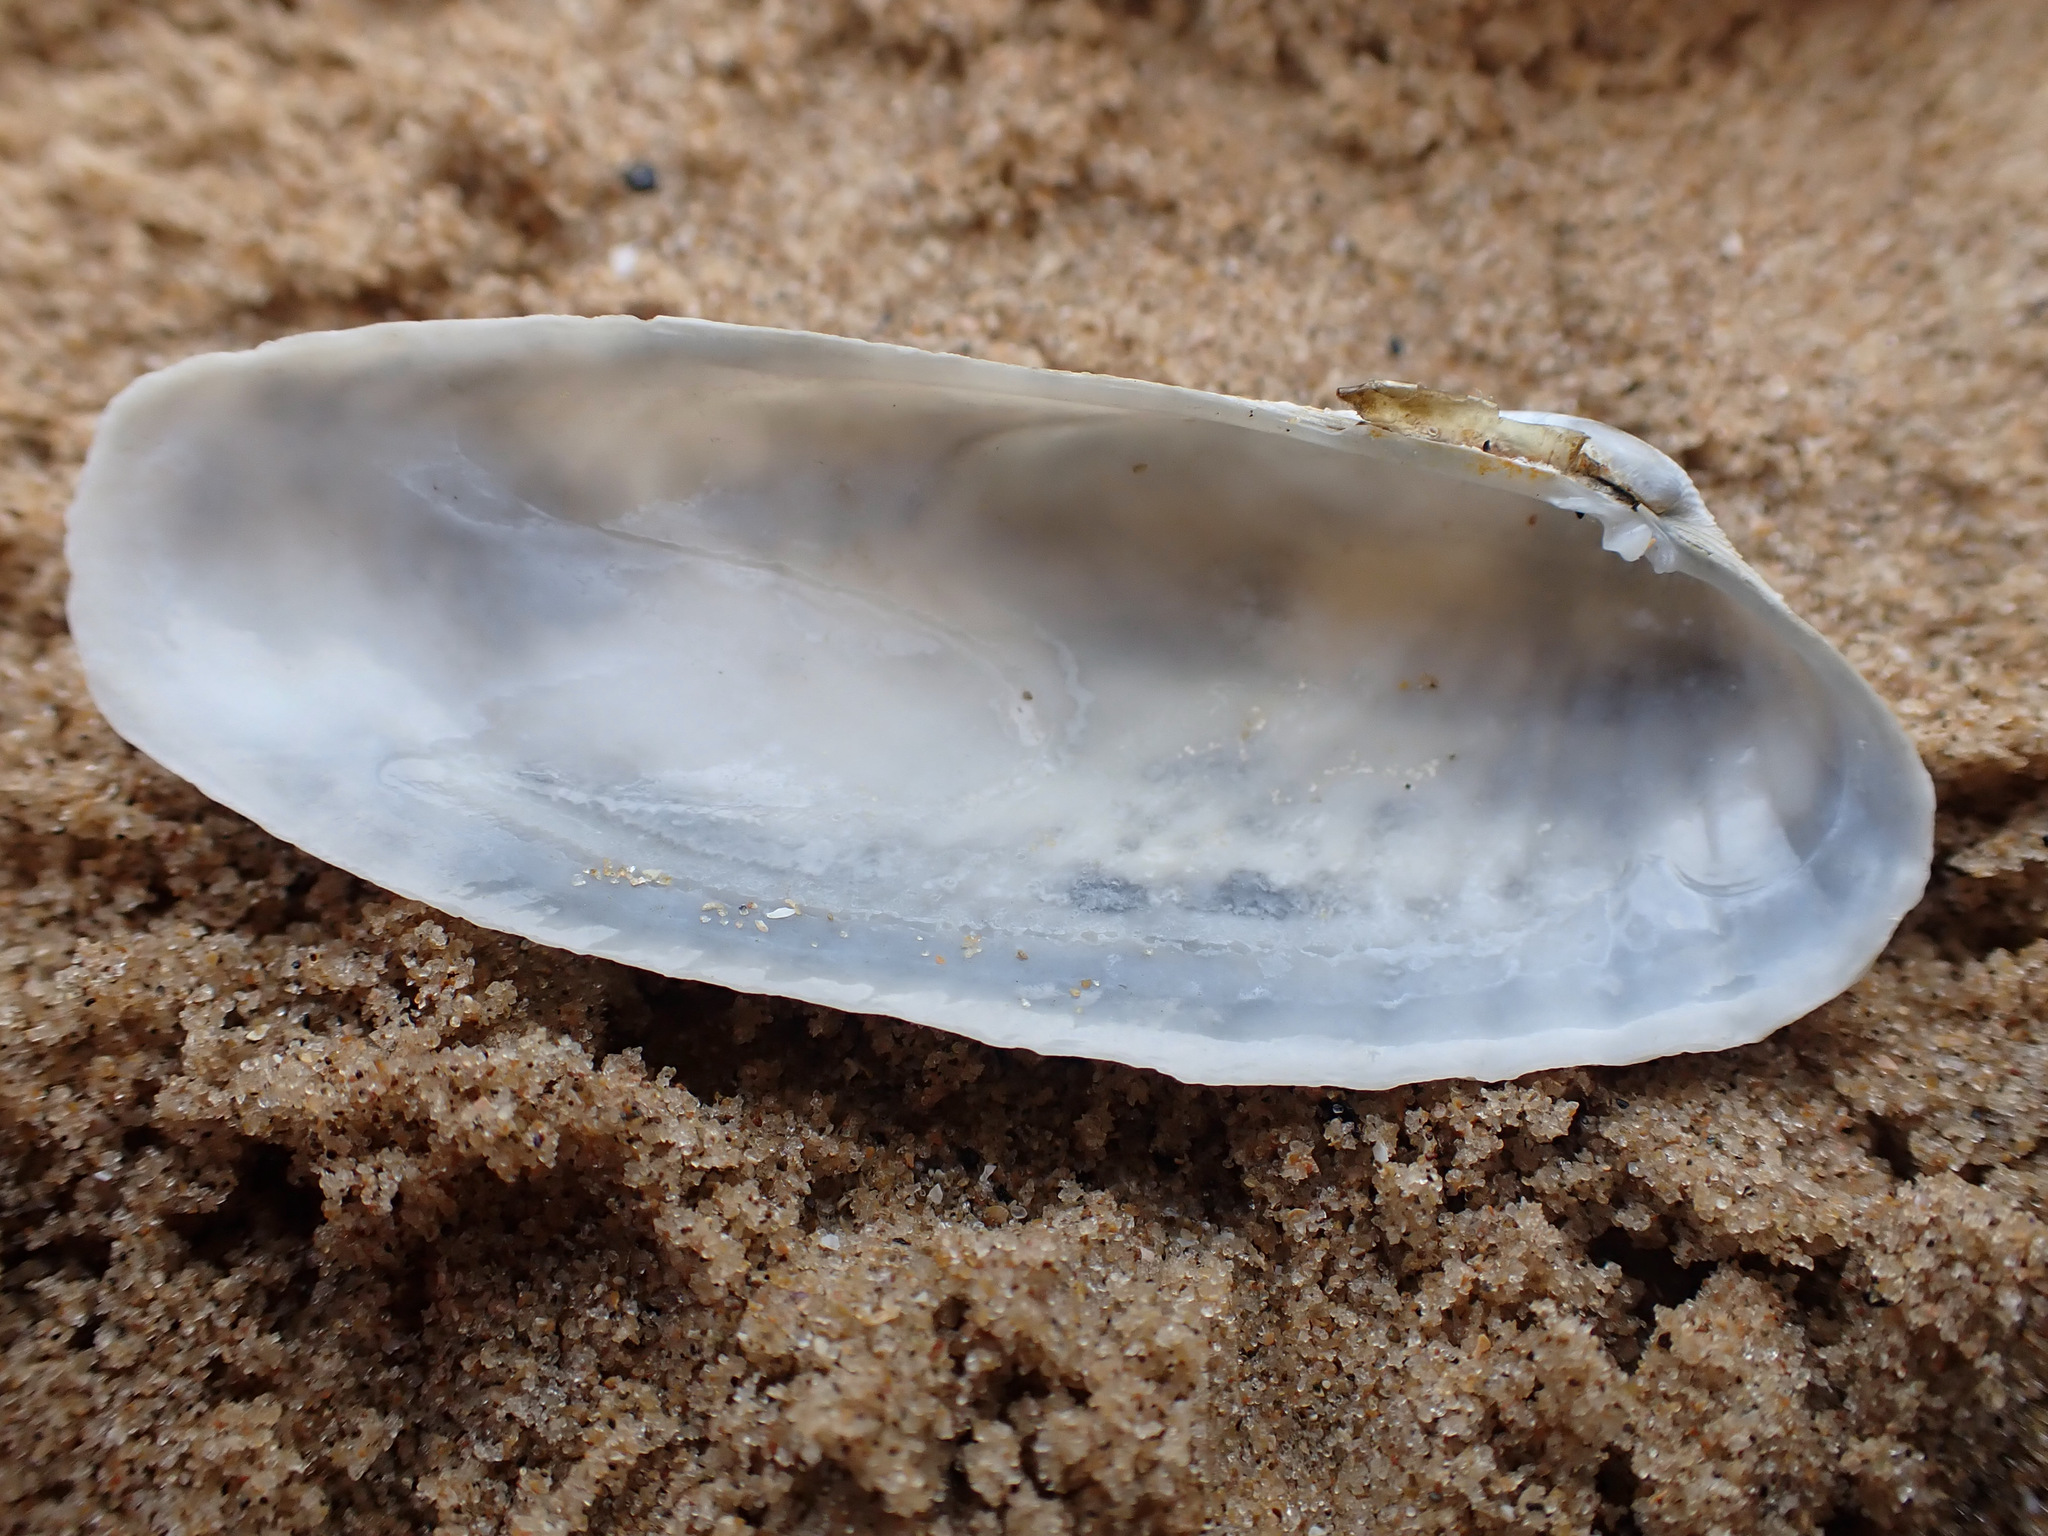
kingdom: Animalia
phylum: Mollusca
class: Bivalvia
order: Venerida
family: Veneridae
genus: Petricolaria
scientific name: Petricolaria pholadiformis
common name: American piddock
